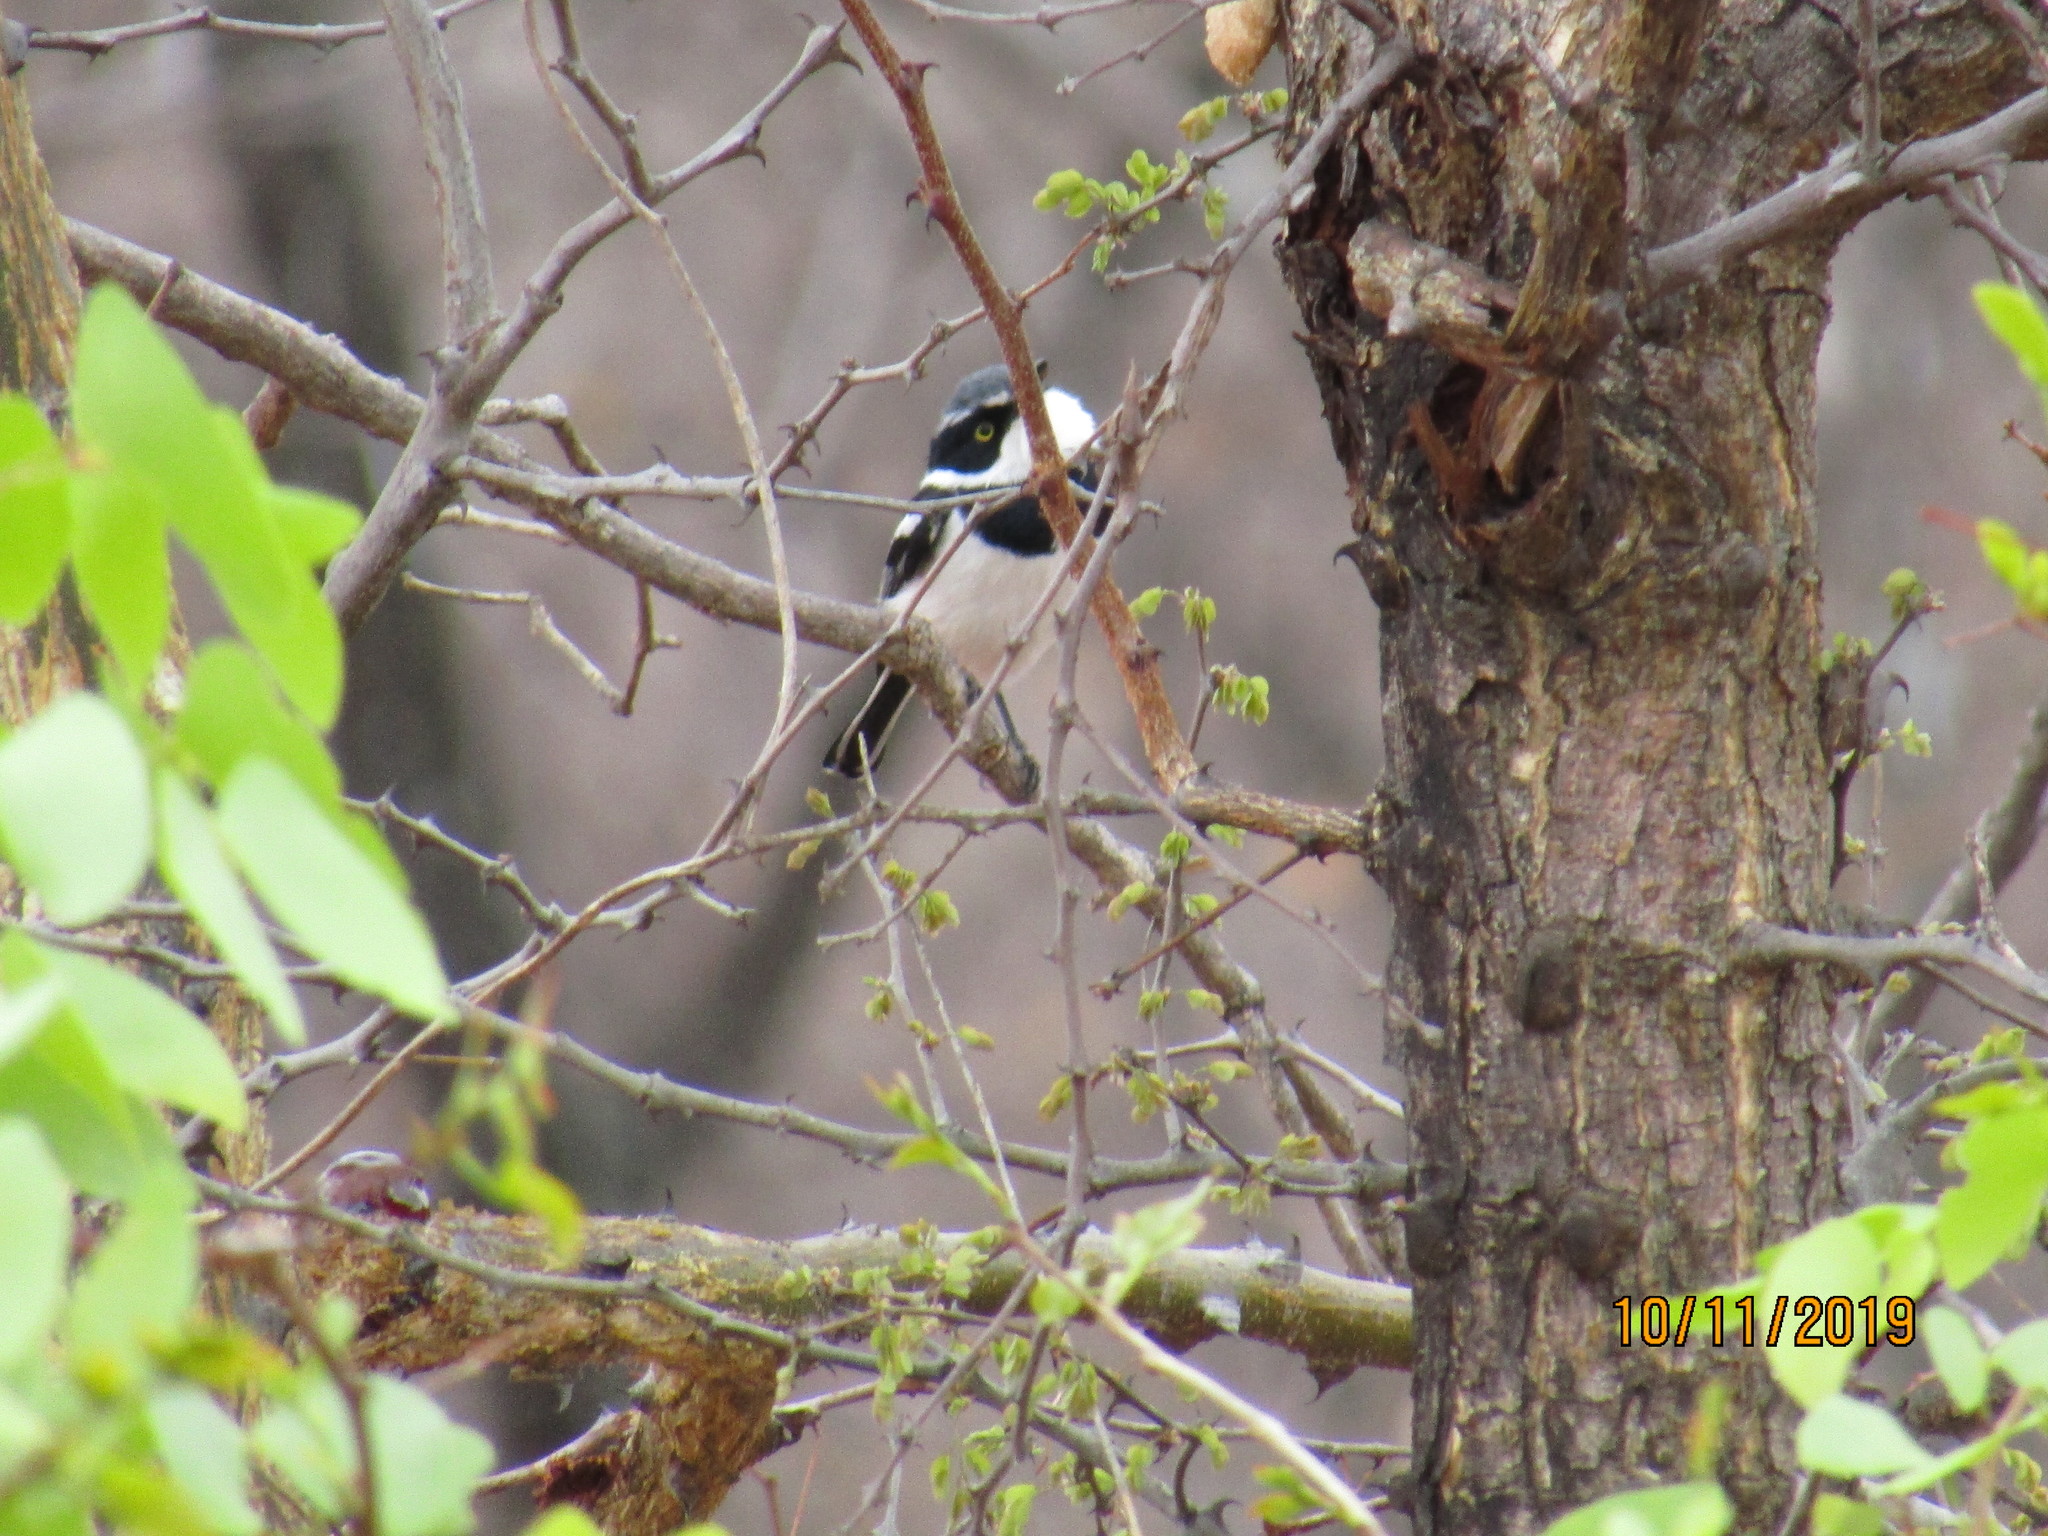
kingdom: Animalia
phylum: Chordata
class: Aves
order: Passeriformes
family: Platysteiridae
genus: Batis
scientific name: Batis molitor
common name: Chinspot batis
